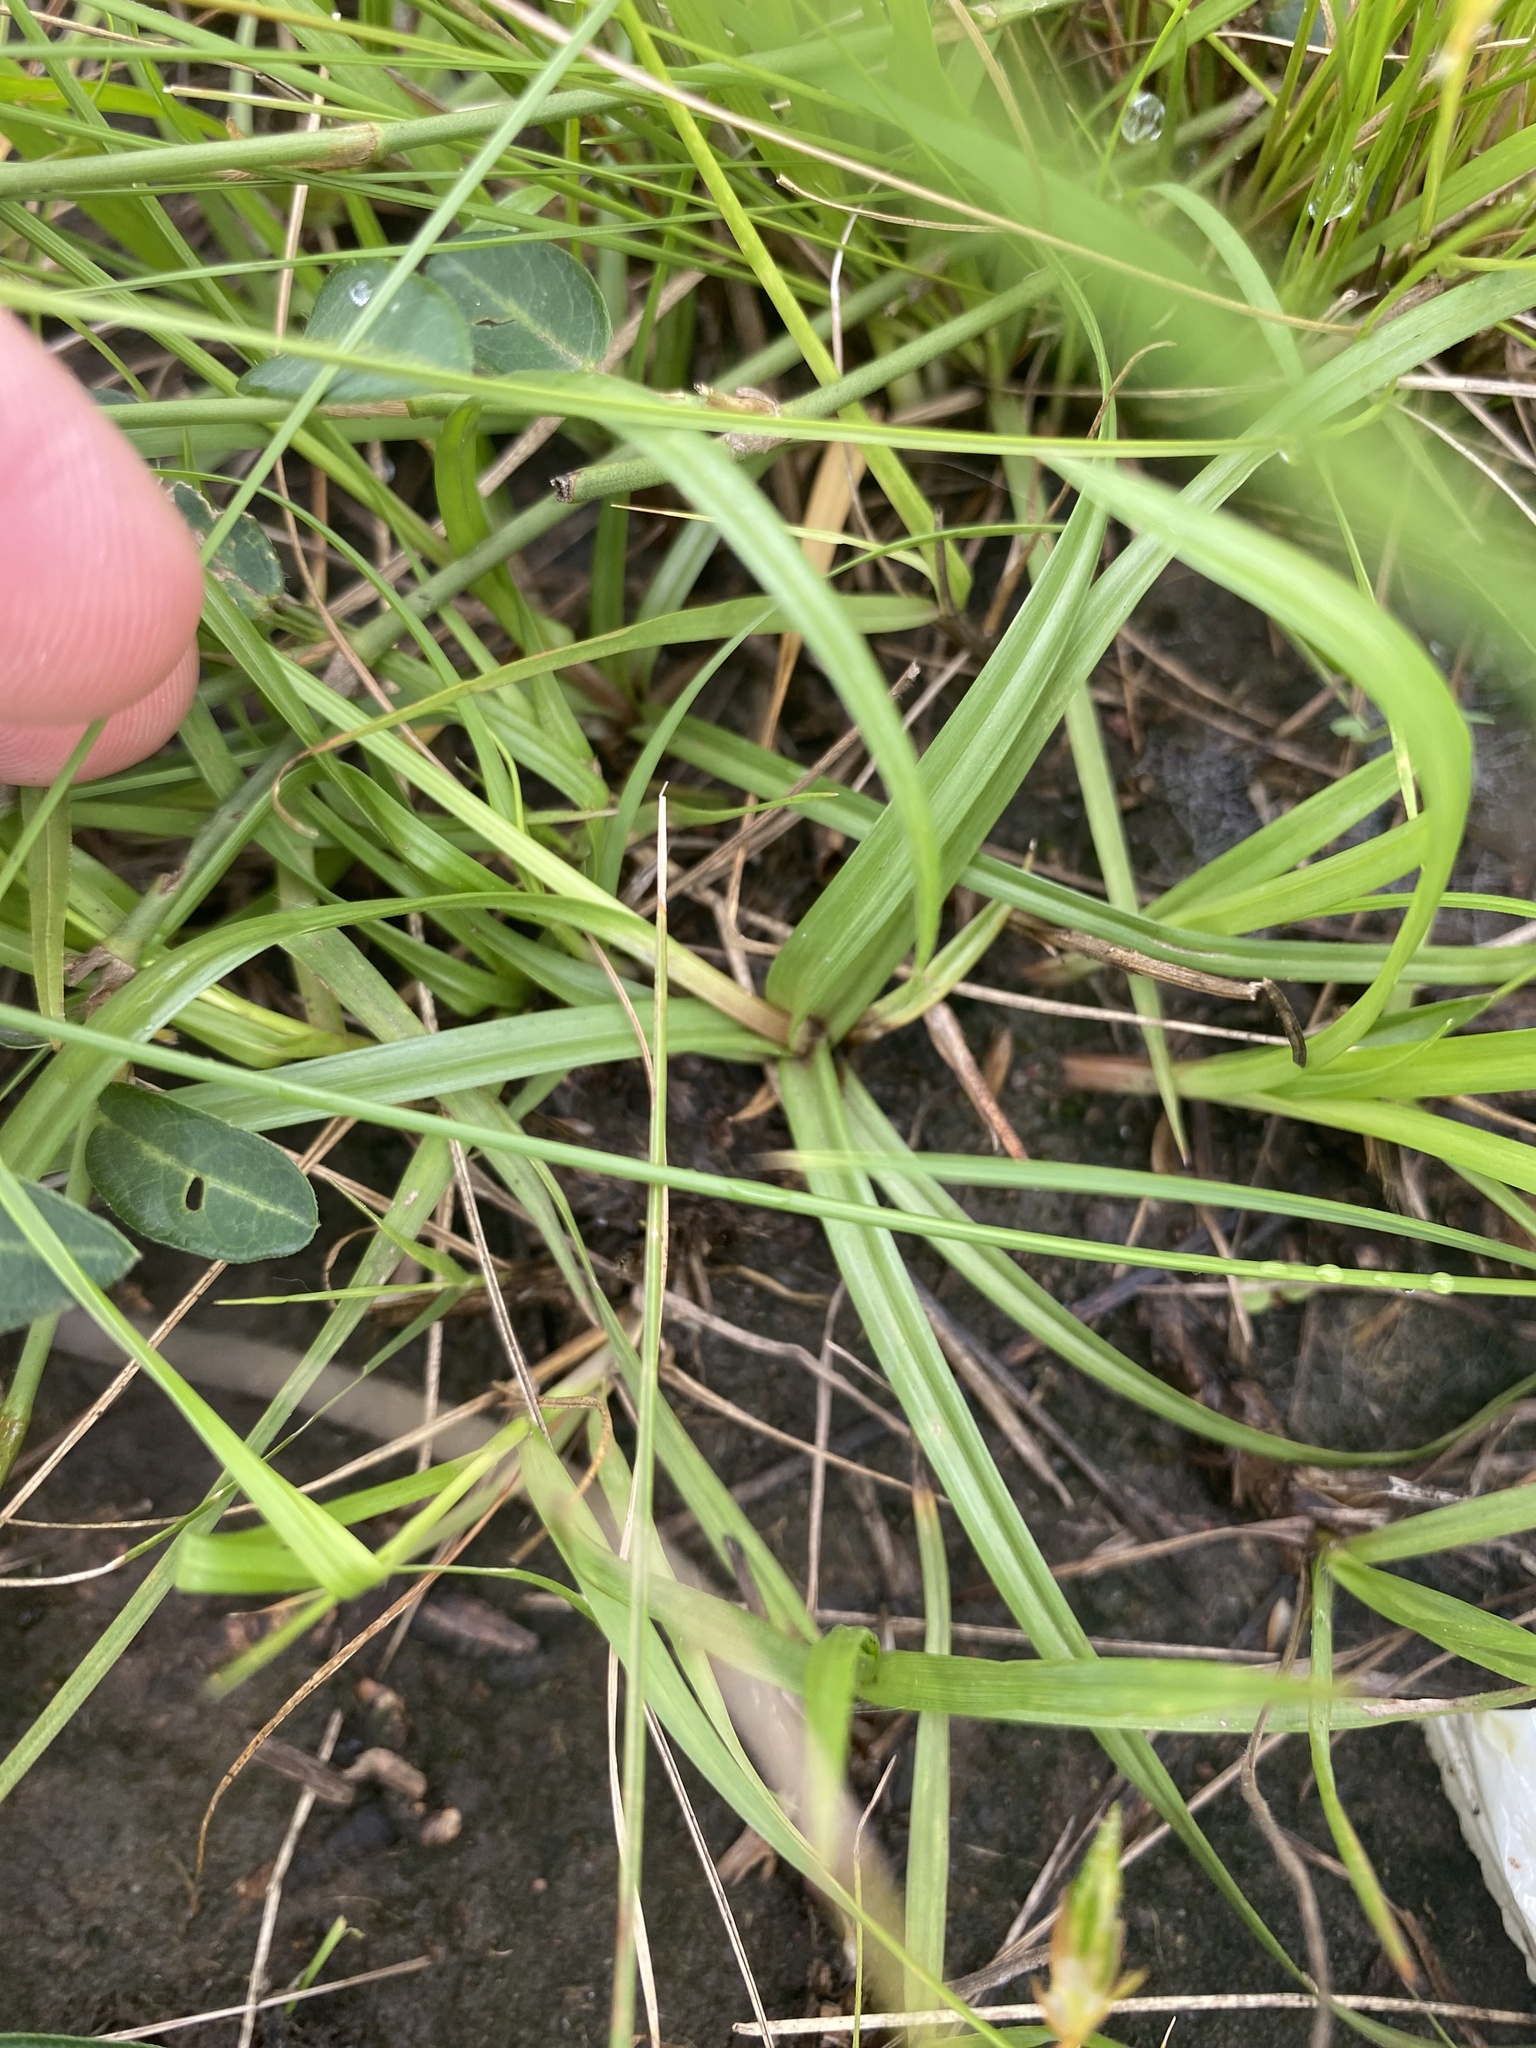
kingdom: Plantae
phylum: Tracheophyta
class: Liliopsida
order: Poales
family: Cyperaceae
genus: Cyperus
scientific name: Cyperus sesquiflorus
